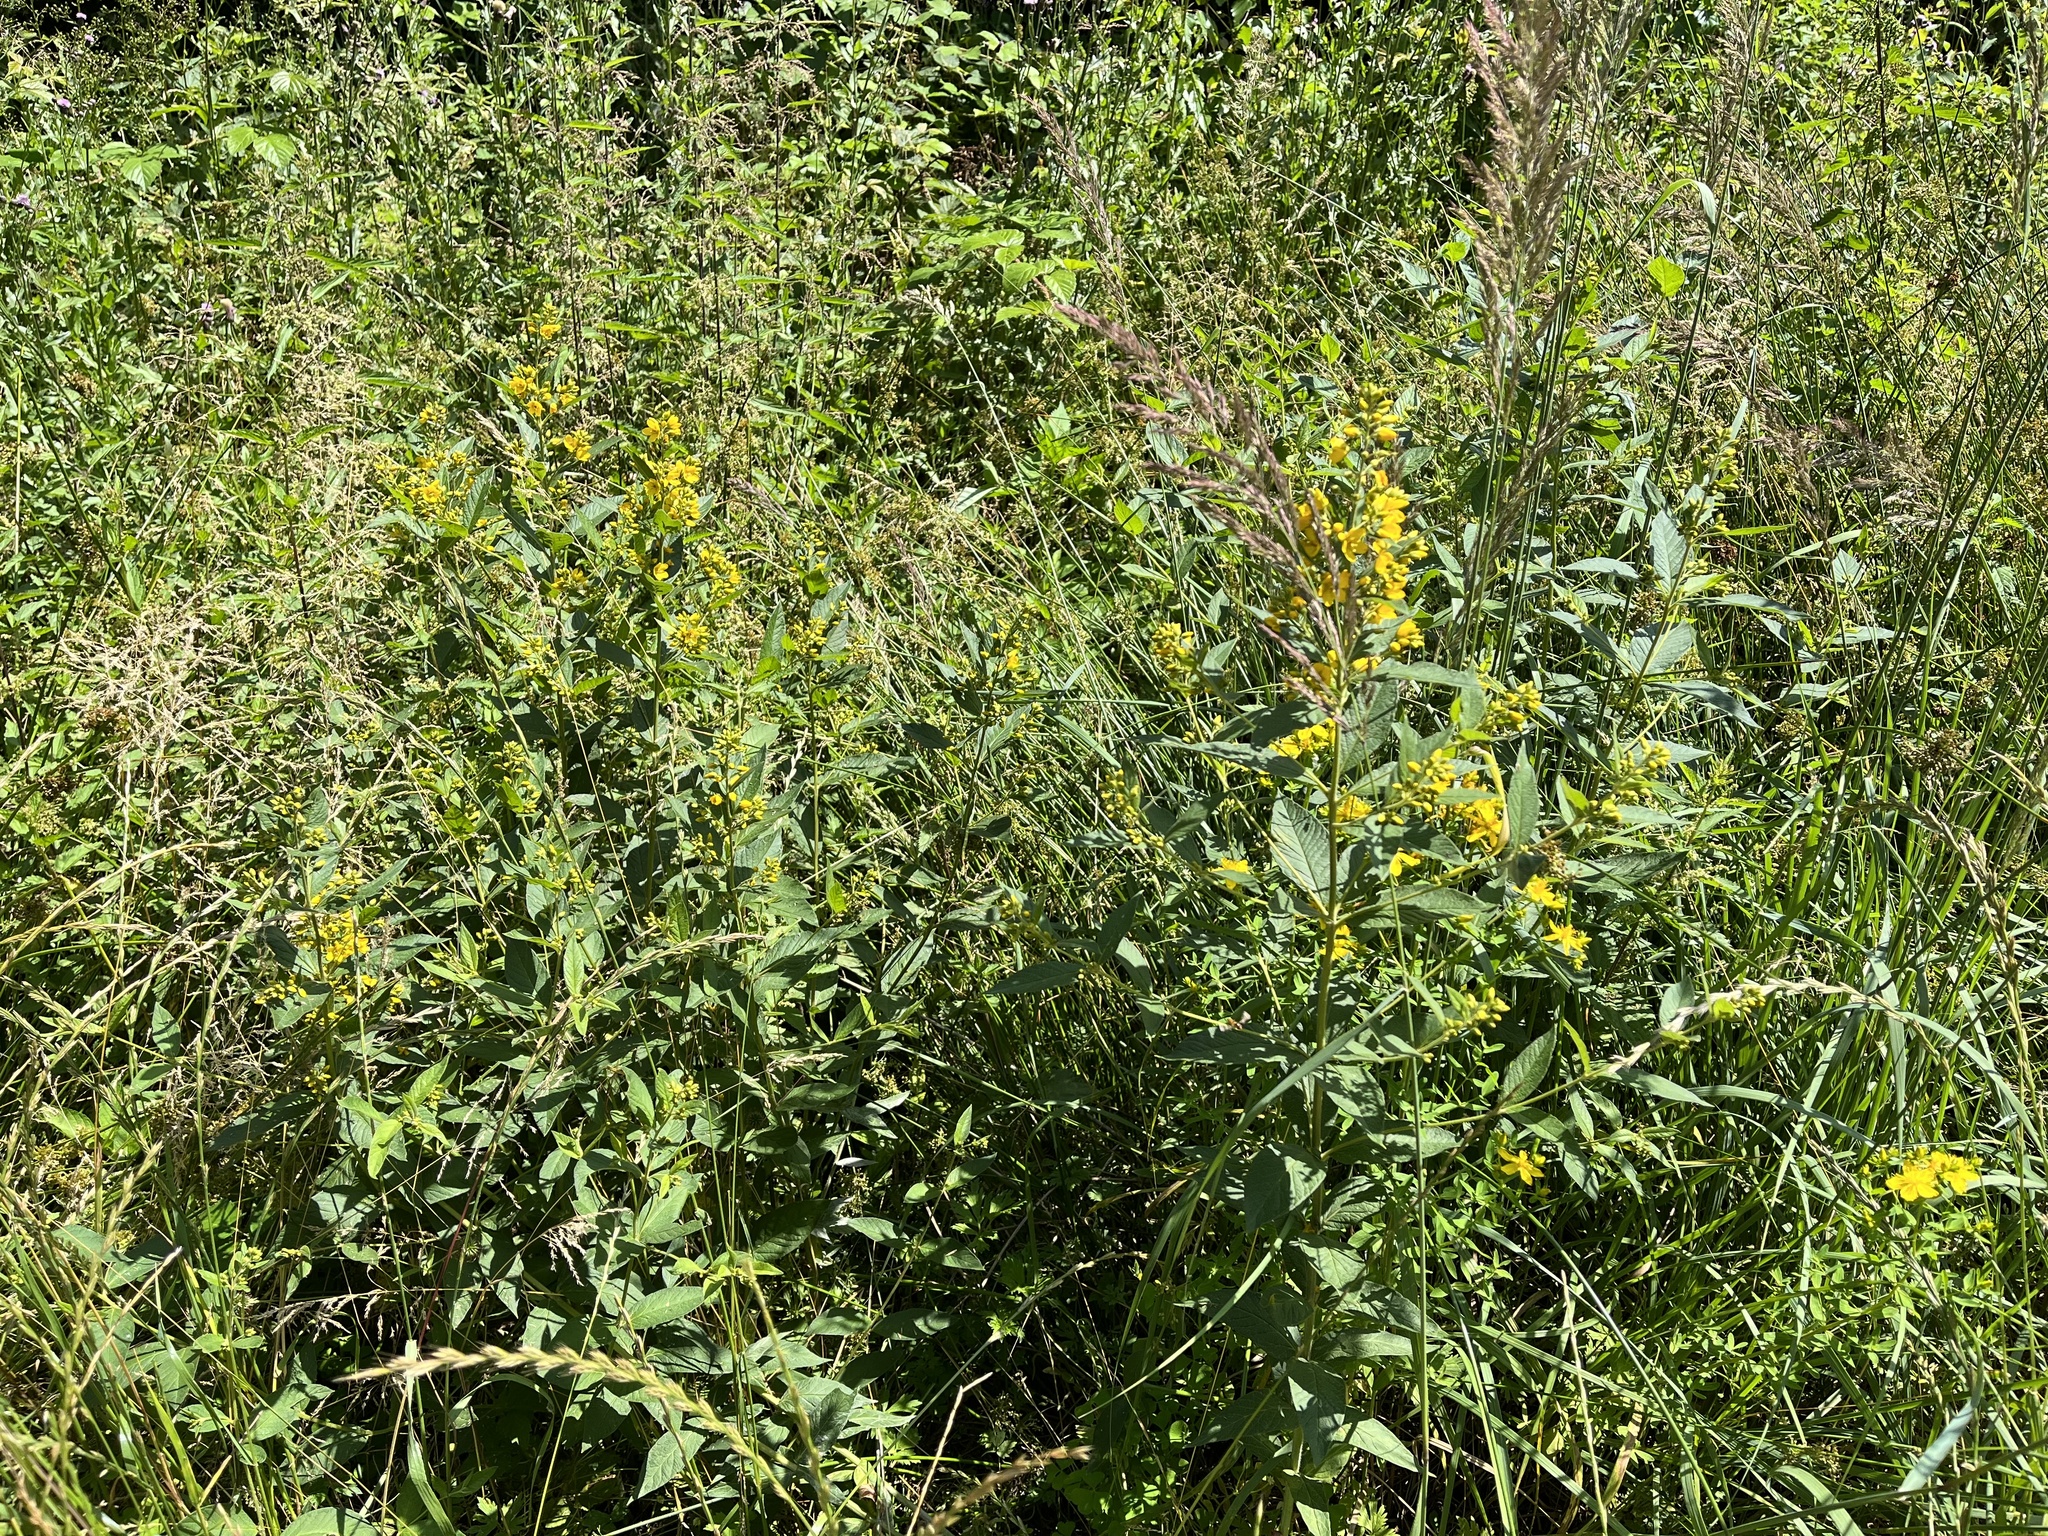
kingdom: Plantae
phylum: Tracheophyta
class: Magnoliopsida
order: Ericales
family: Primulaceae
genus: Lysimachia
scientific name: Lysimachia vulgaris
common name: Yellow loosestrife
